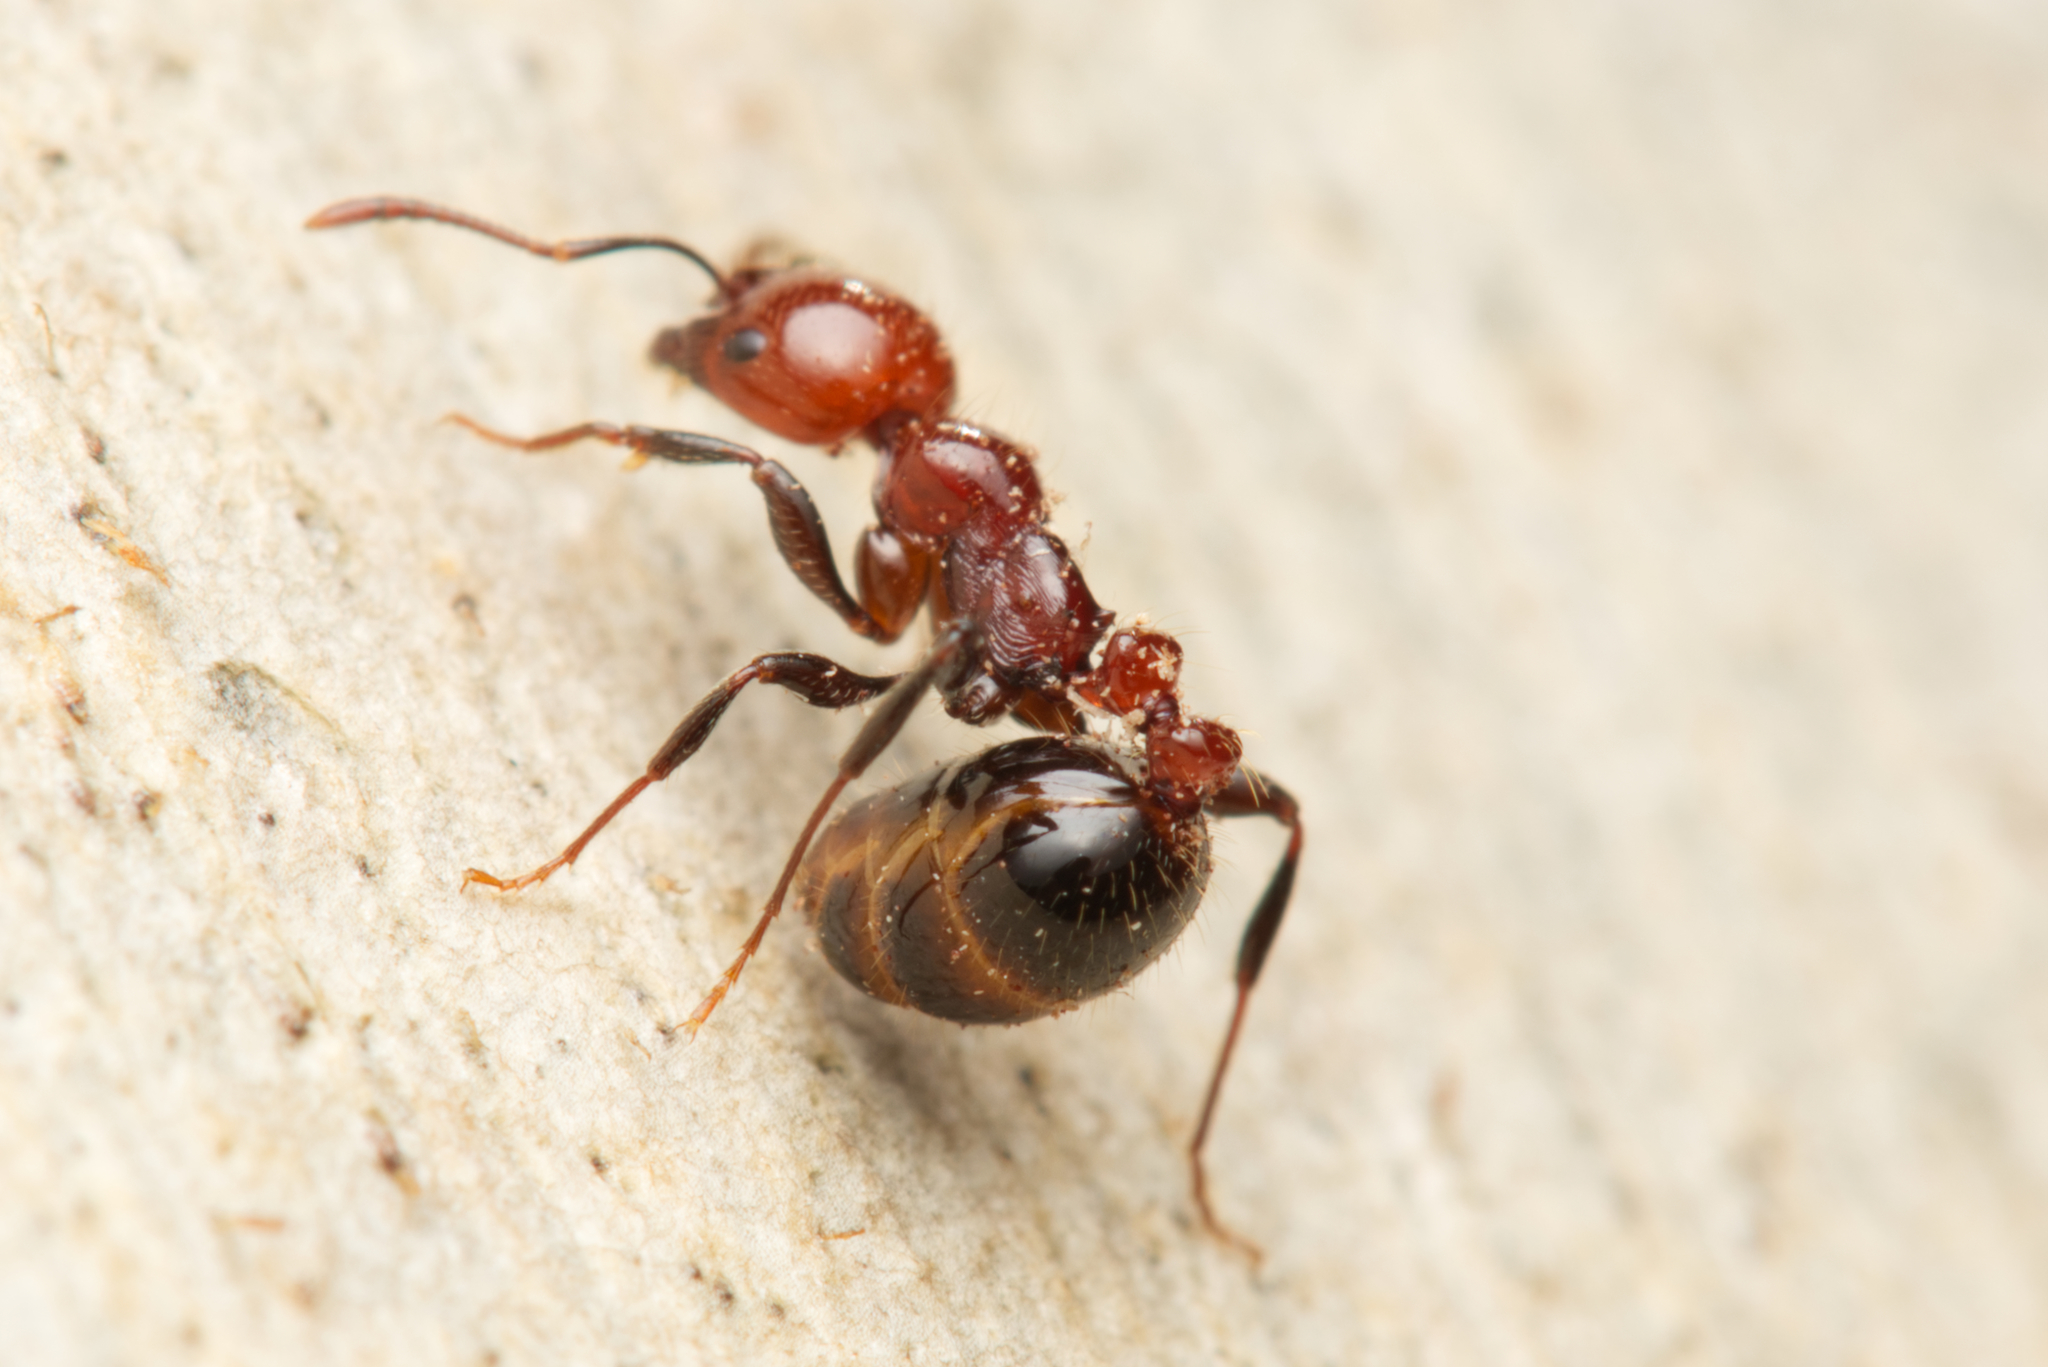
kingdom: Animalia
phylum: Arthropoda
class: Insecta
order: Hymenoptera
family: Formicidae
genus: Chelaner
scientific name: Chelaner
